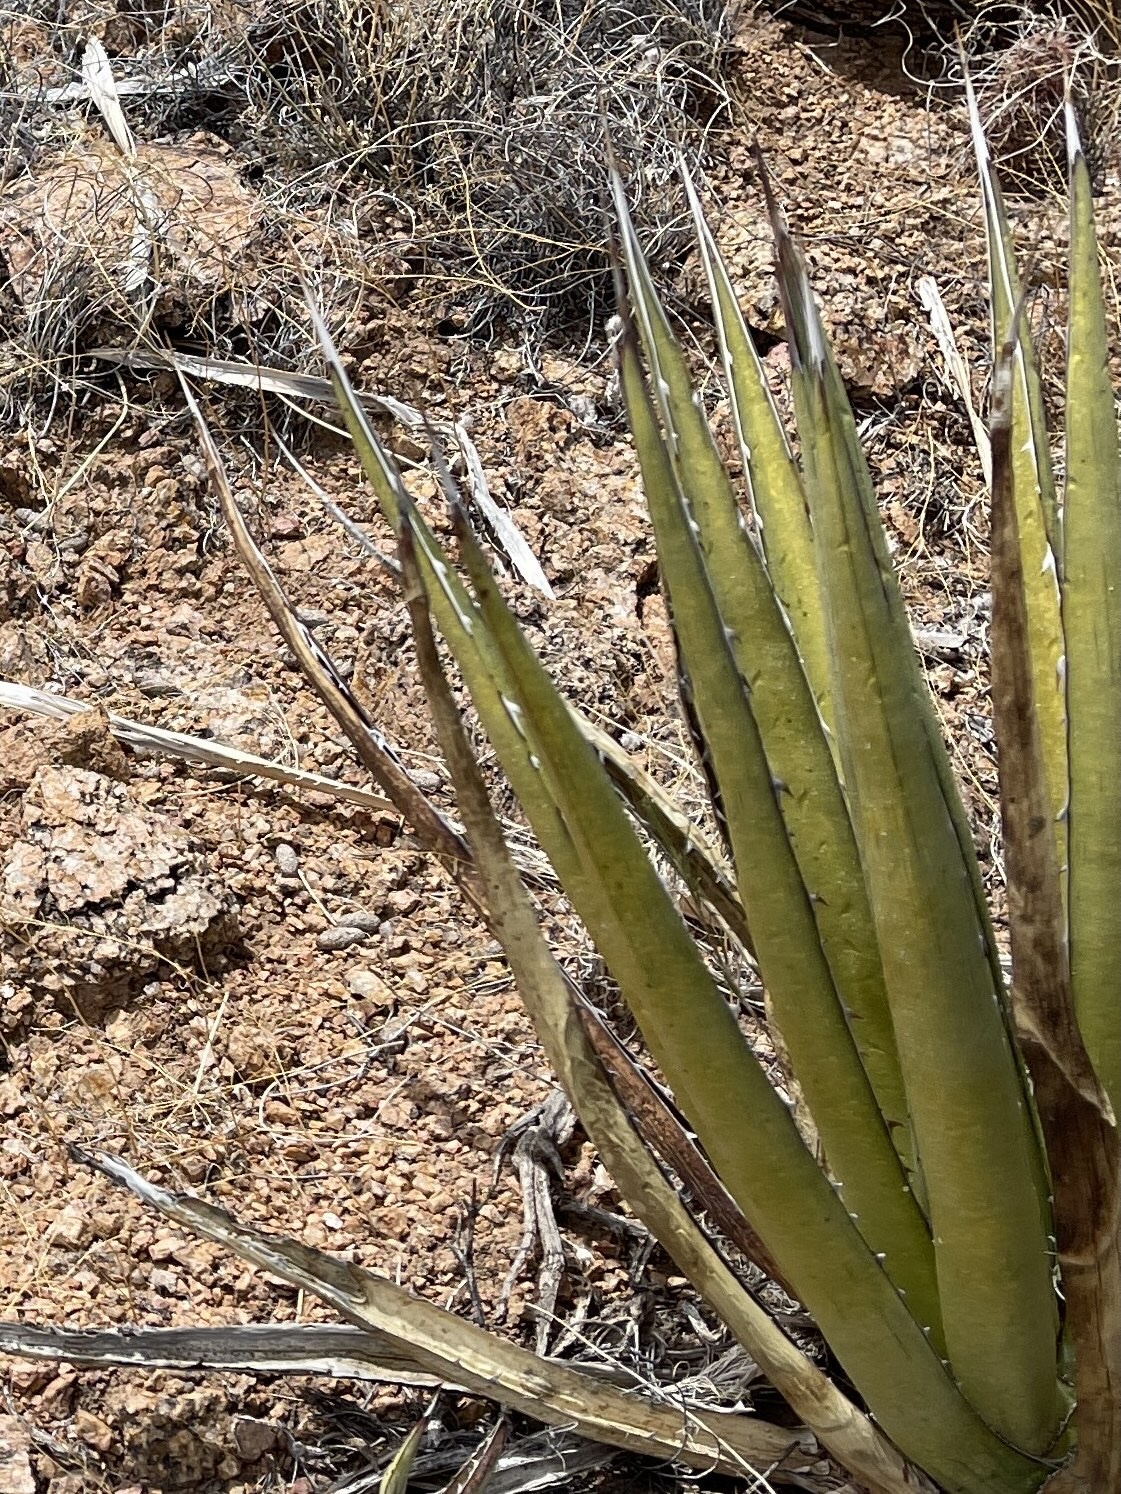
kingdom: Plantae
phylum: Tracheophyta
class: Liliopsida
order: Asparagales
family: Asparagaceae
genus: Agave
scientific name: Agave lechuguilla
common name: Lecheguilla agave
